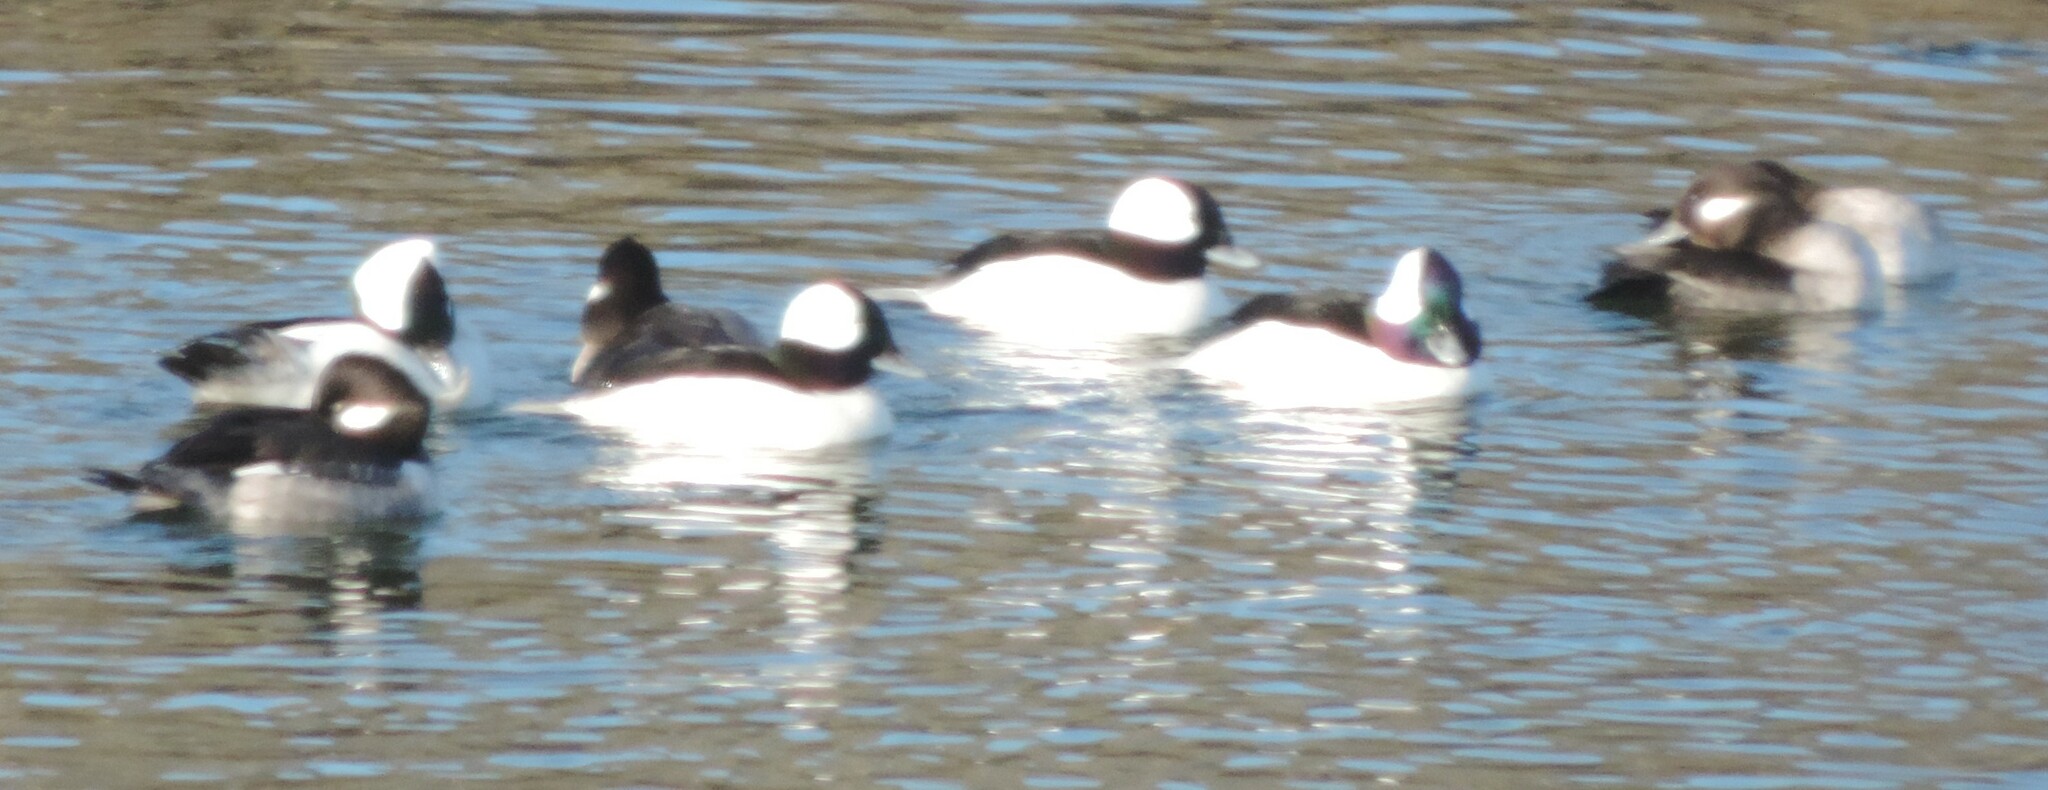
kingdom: Animalia
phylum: Chordata
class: Aves
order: Anseriformes
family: Anatidae
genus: Bucephala
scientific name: Bucephala albeola
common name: Bufflehead
